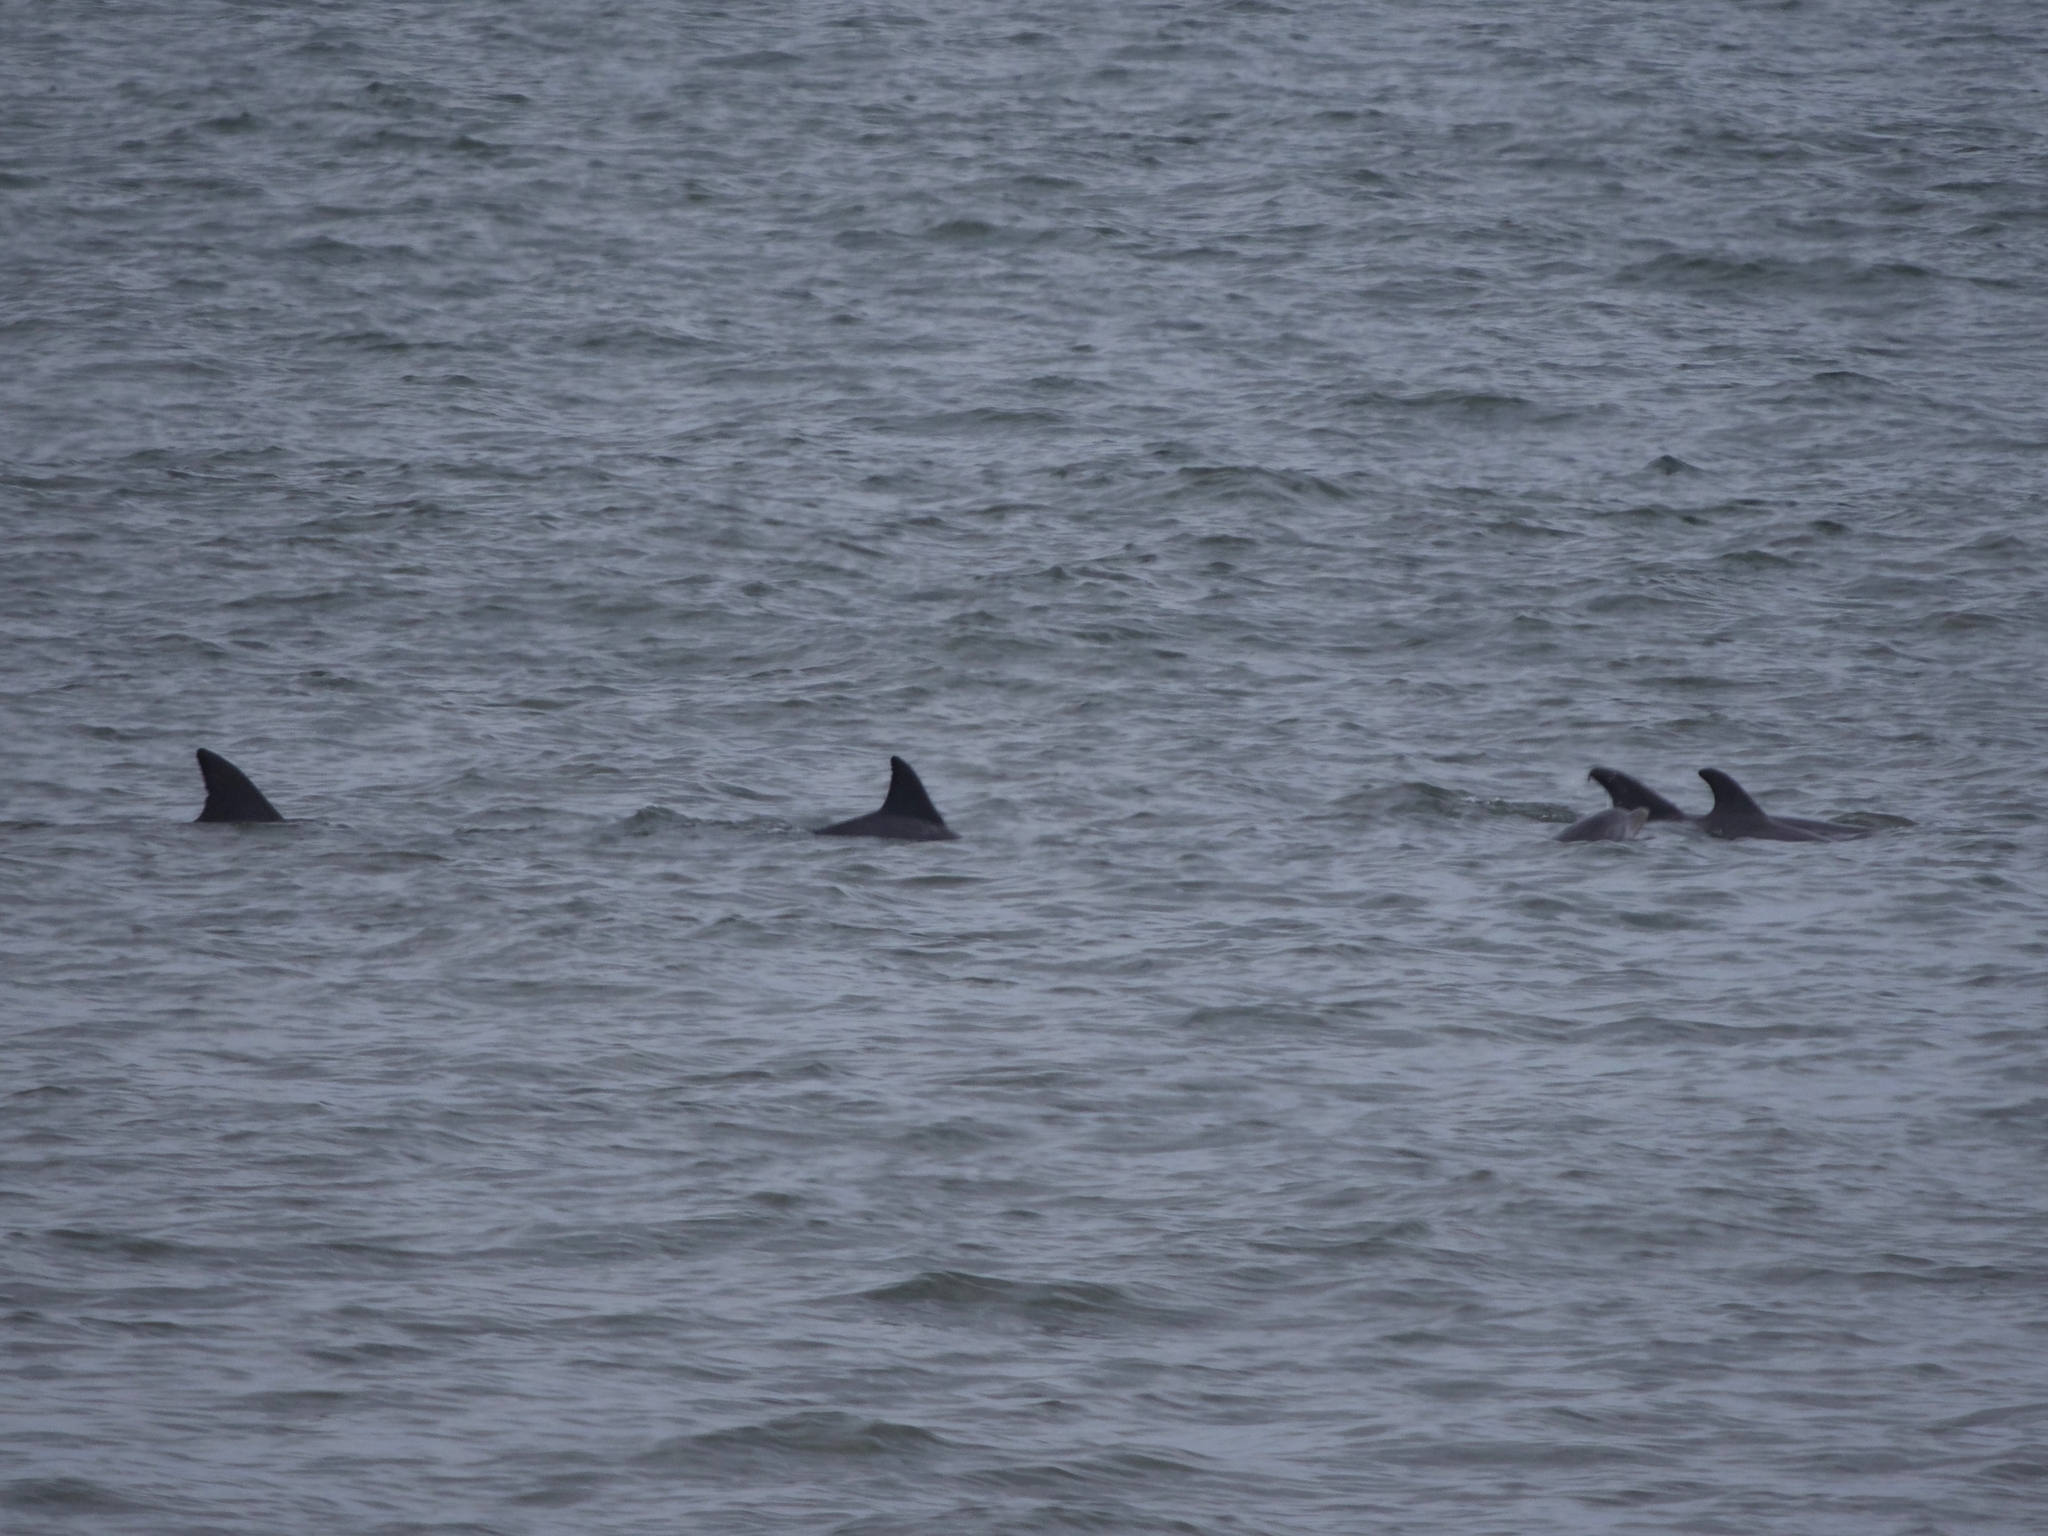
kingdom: Animalia
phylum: Chordata
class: Mammalia
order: Cetacea
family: Delphinidae
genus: Tursiops
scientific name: Tursiops truncatus
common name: Bottlenose dolphin
